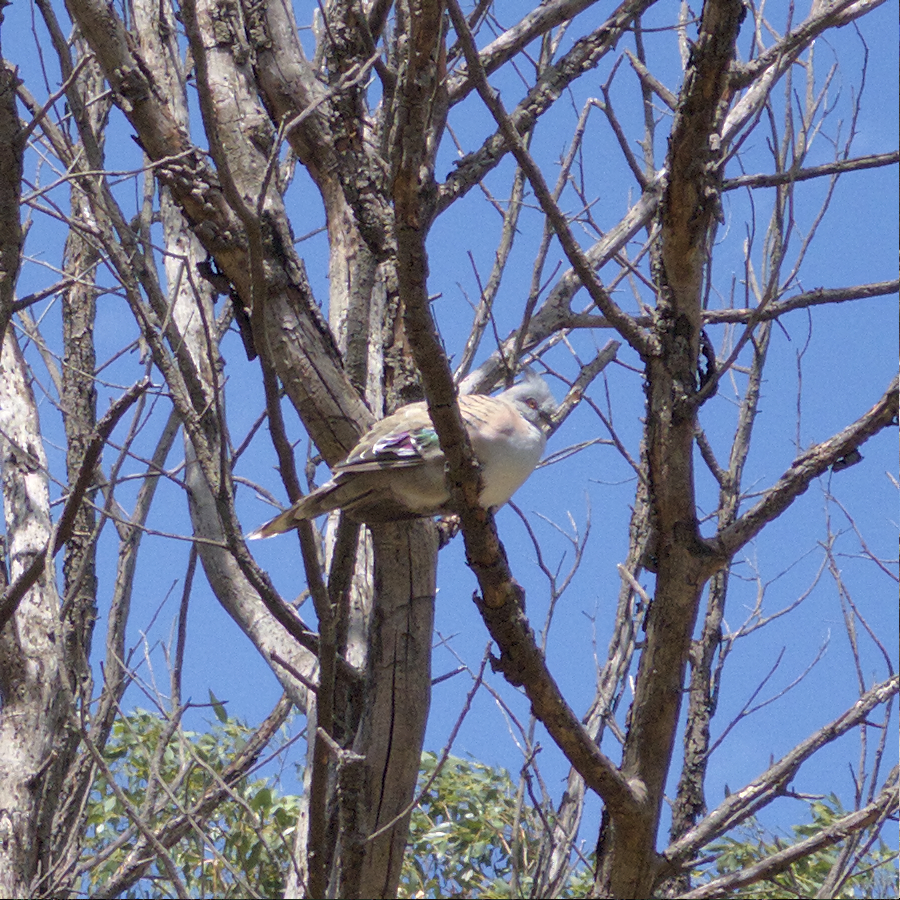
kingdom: Animalia
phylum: Chordata
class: Aves
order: Columbiformes
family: Columbidae
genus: Ocyphaps
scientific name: Ocyphaps lophotes
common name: Crested pigeon
